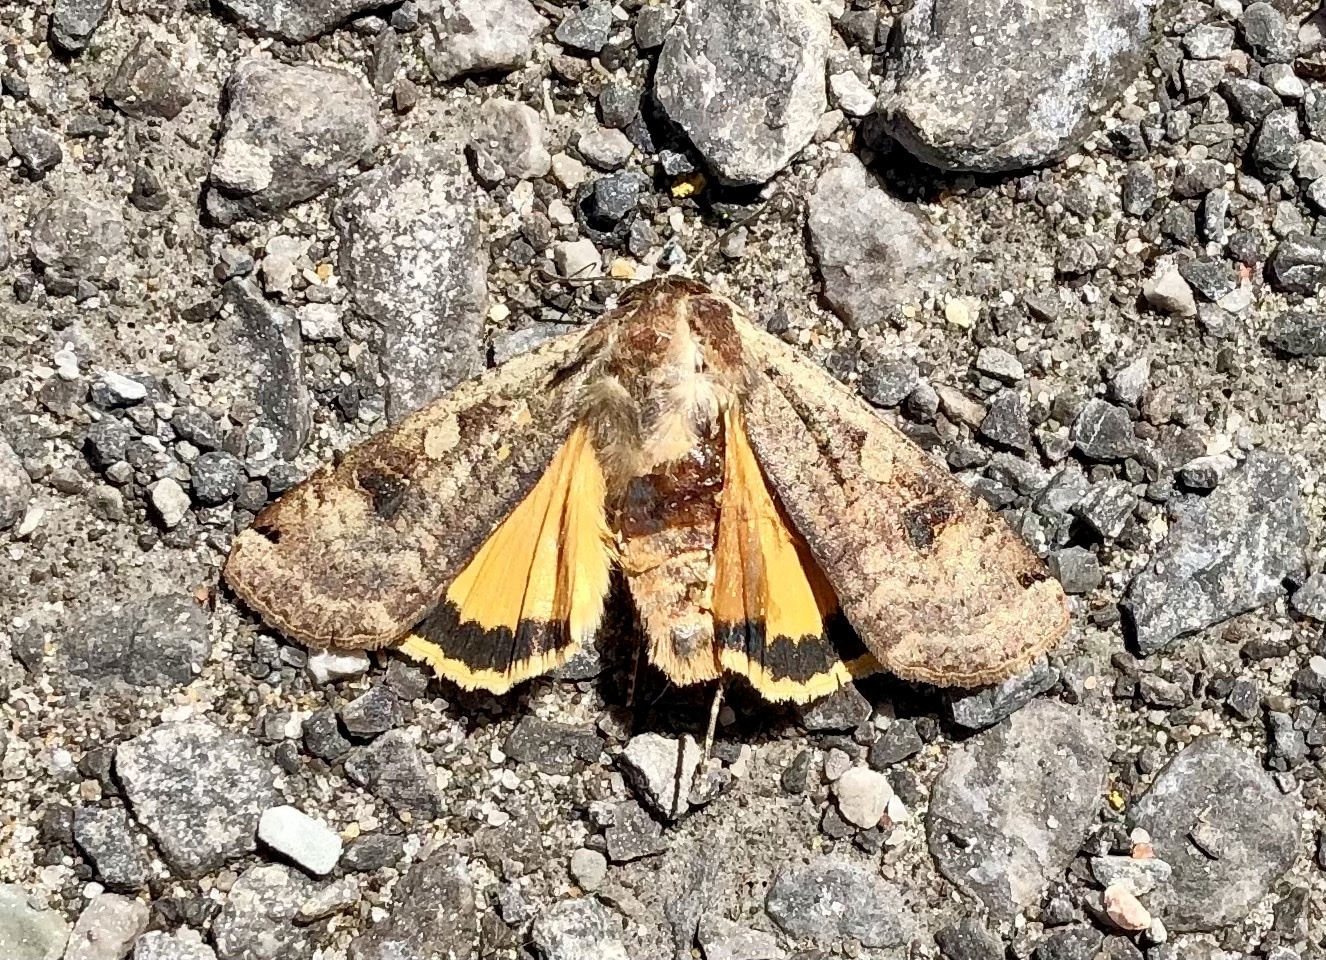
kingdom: Animalia
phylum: Arthropoda
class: Insecta
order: Lepidoptera
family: Noctuidae
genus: Noctua
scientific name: Noctua pronuba
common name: Large yellow underwing
